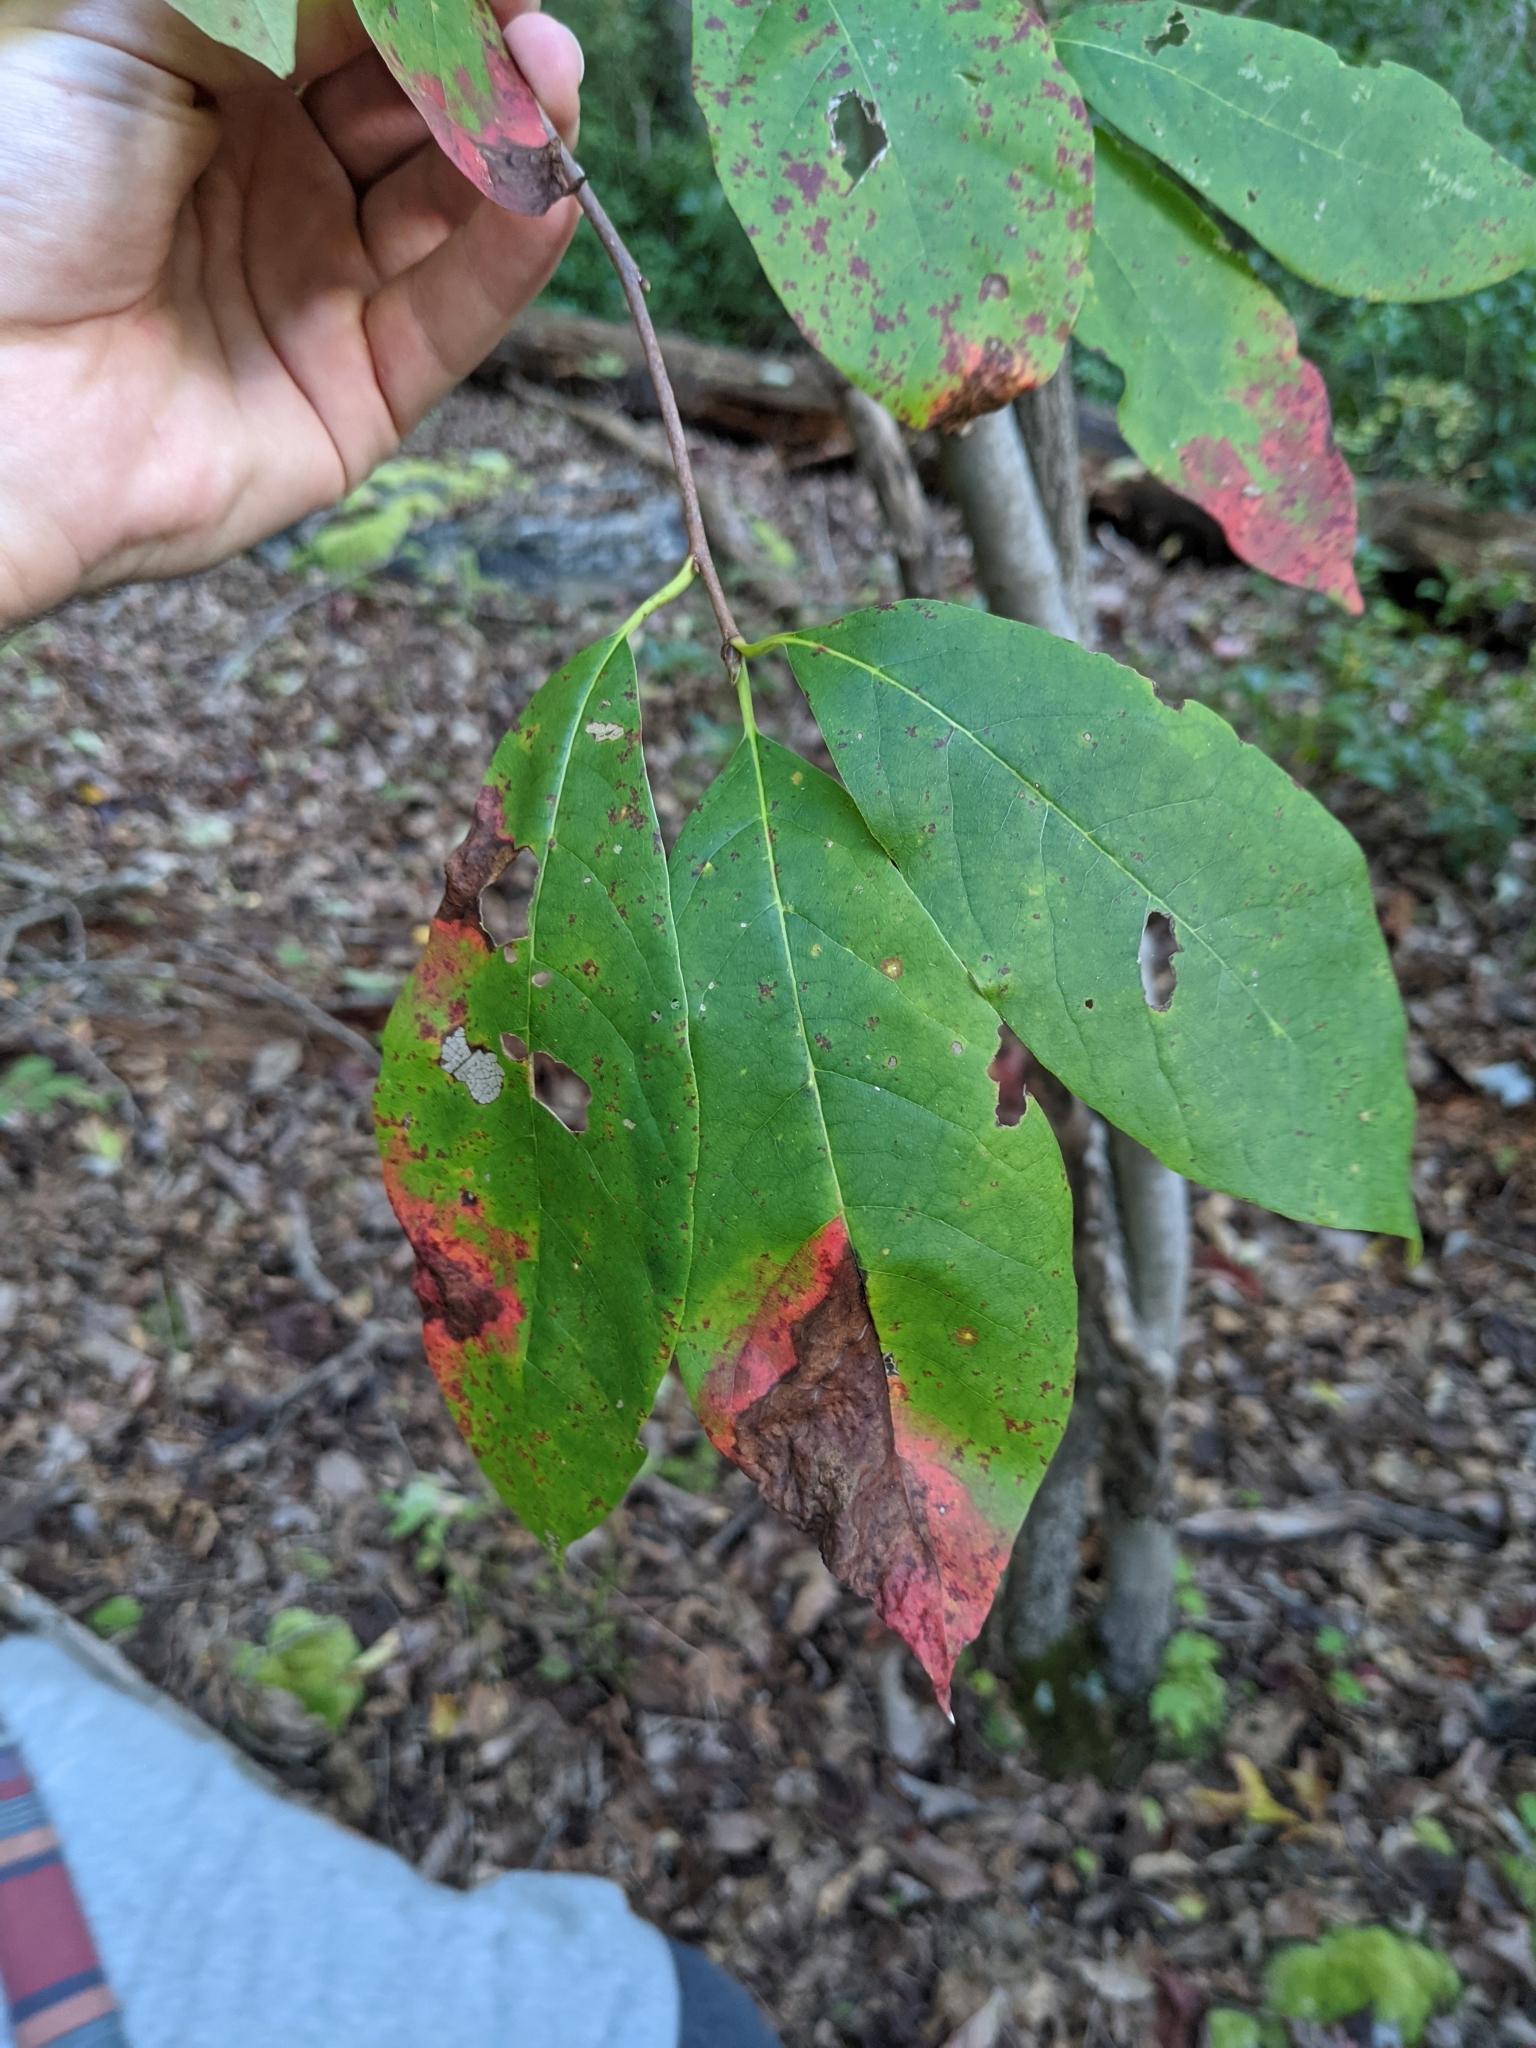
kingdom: Plantae
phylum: Tracheophyta
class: Magnoliopsida
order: Cornales
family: Nyssaceae
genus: Nyssa
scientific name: Nyssa sylvatica
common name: Black tupelo
